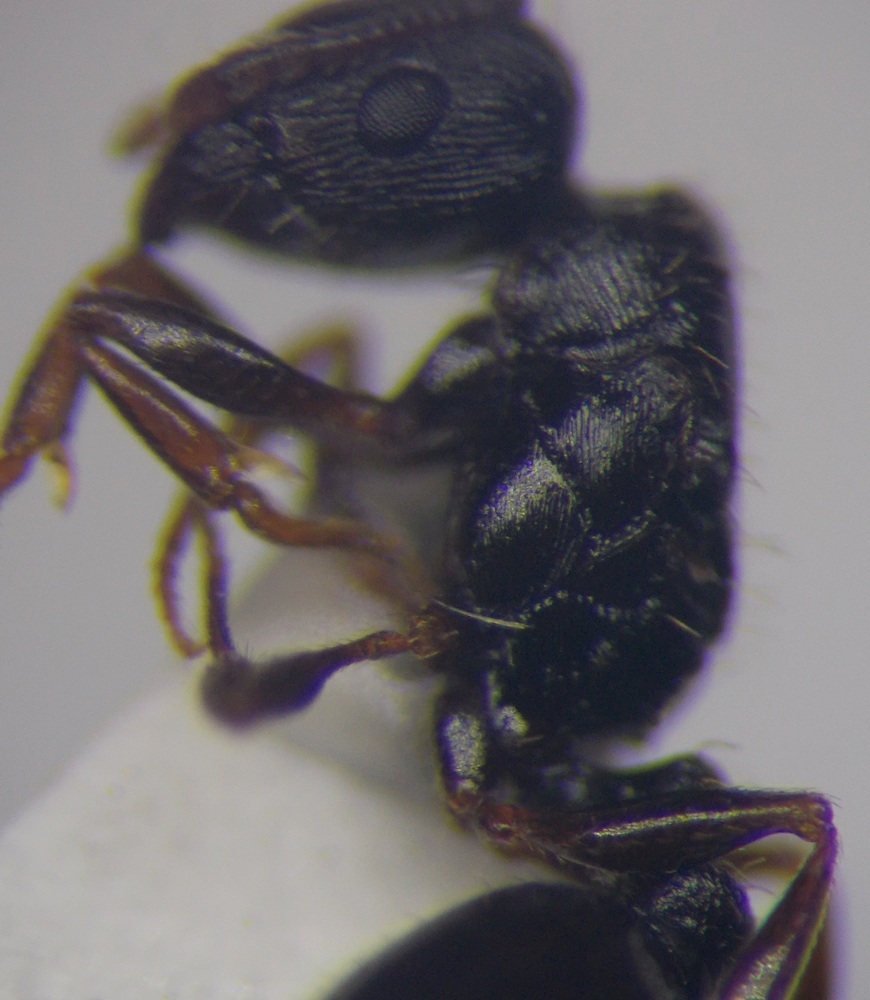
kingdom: Animalia
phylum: Arthropoda
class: Insecta
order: Hymenoptera
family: Formicidae
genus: Tetramorium
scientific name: Tetramorium chefketi
